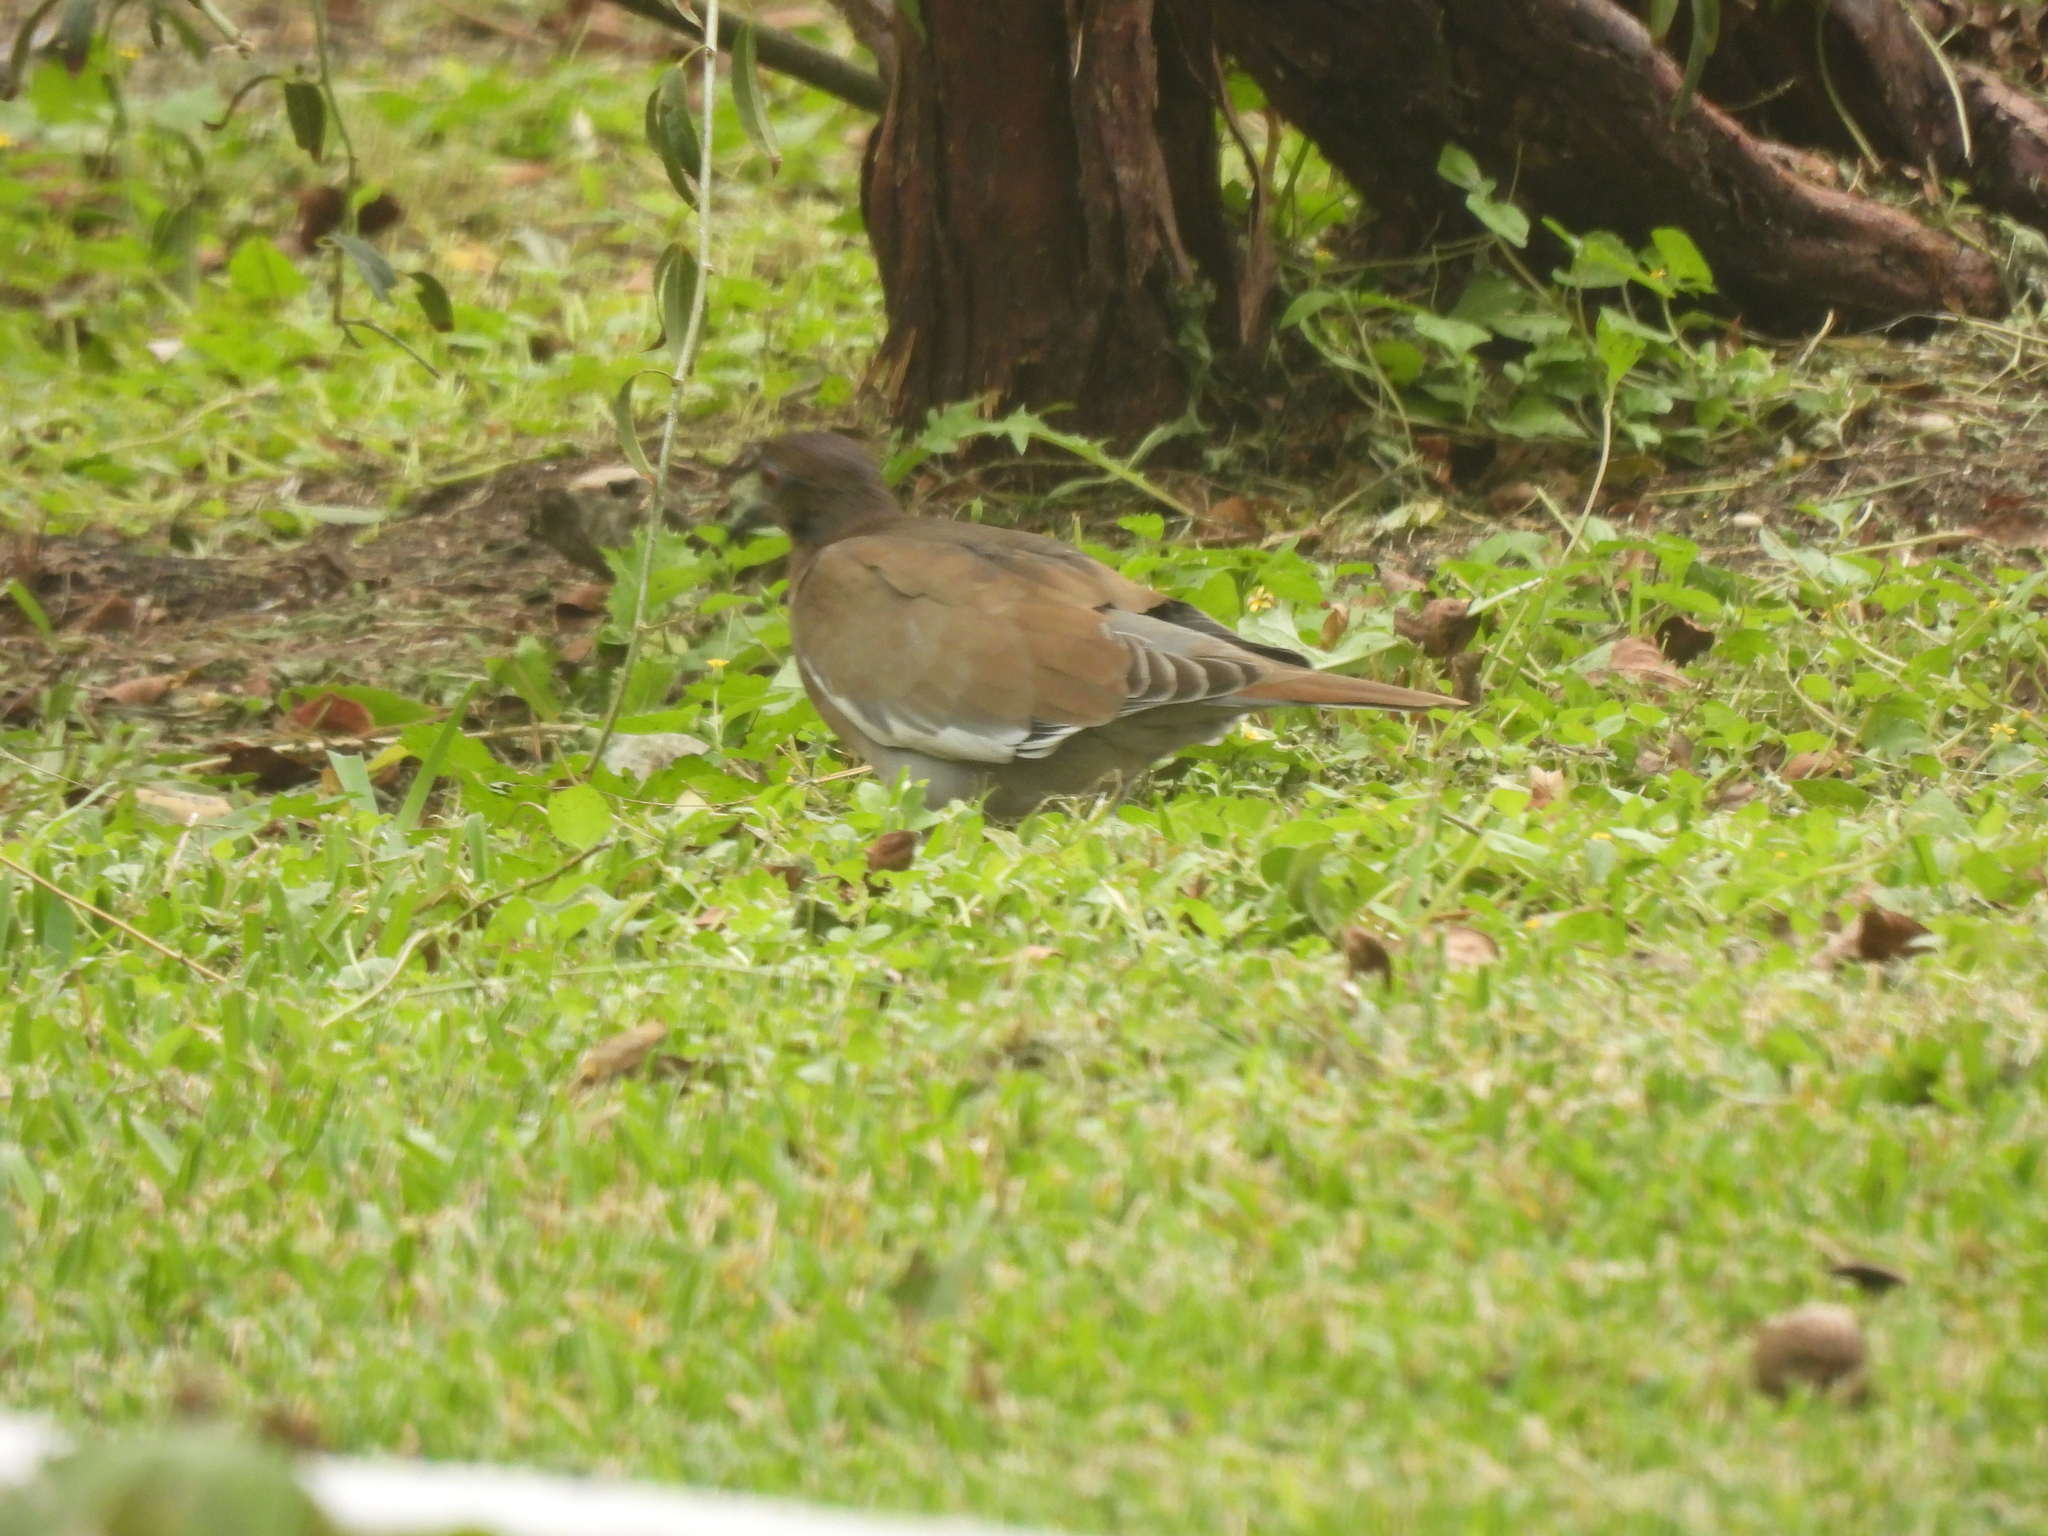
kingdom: Animalia
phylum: Chordata
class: Aves
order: Columbiformes
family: Columbidae
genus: Zenaida
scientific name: Zenaida asiatica
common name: White-winged dove
